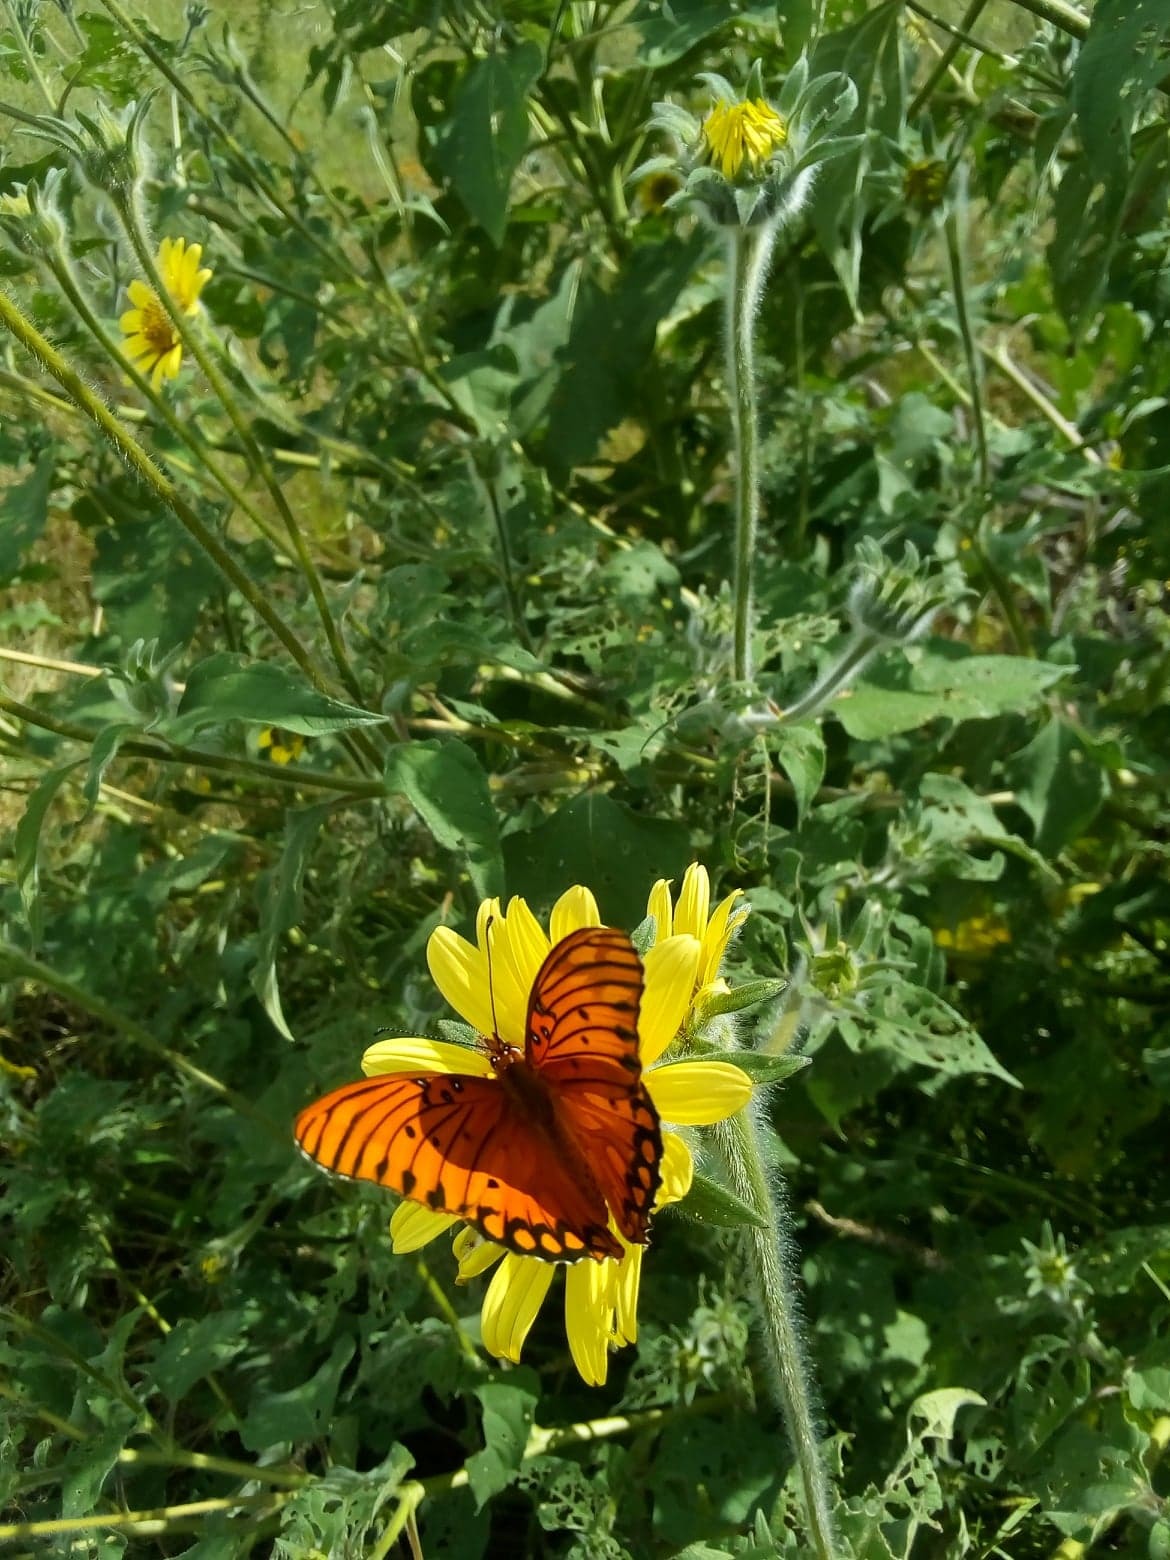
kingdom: Animalia
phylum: Arthropoda
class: Insecta
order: Lepidoptera
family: Nymphalidae
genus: Dione
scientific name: Dione vanillae
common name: Gulf fritillary
